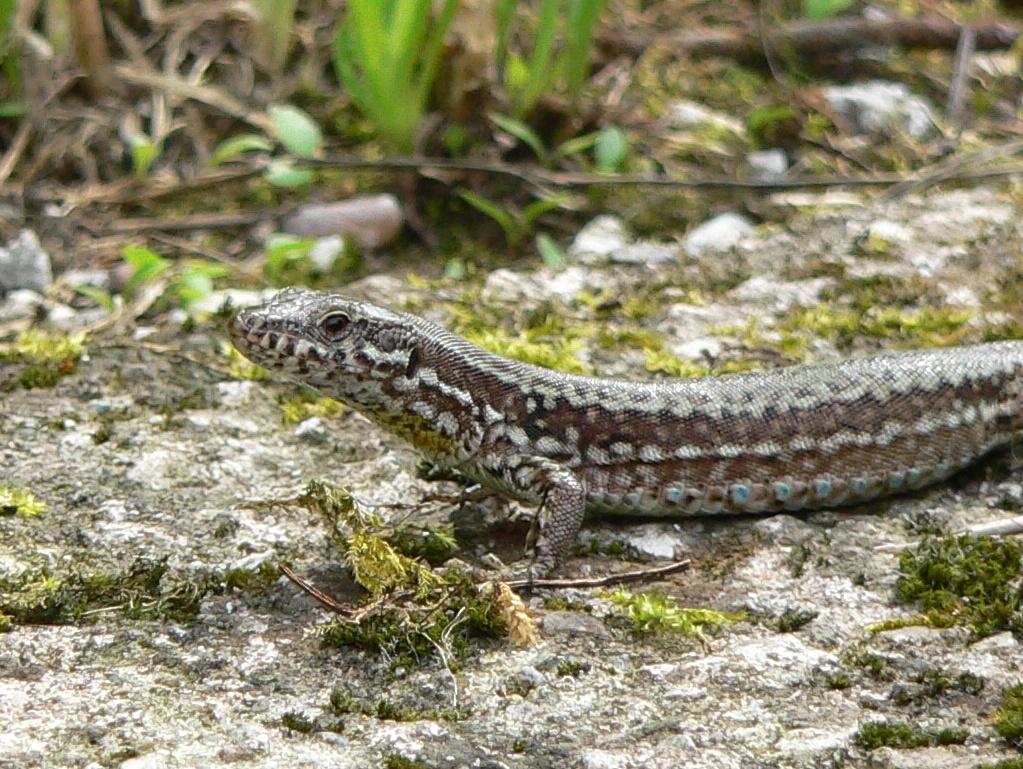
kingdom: Animalia
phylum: Chordata
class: Squamata
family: Lacertidae
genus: Podarcis
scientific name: Podarcis muralis
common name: Common wall lizard
